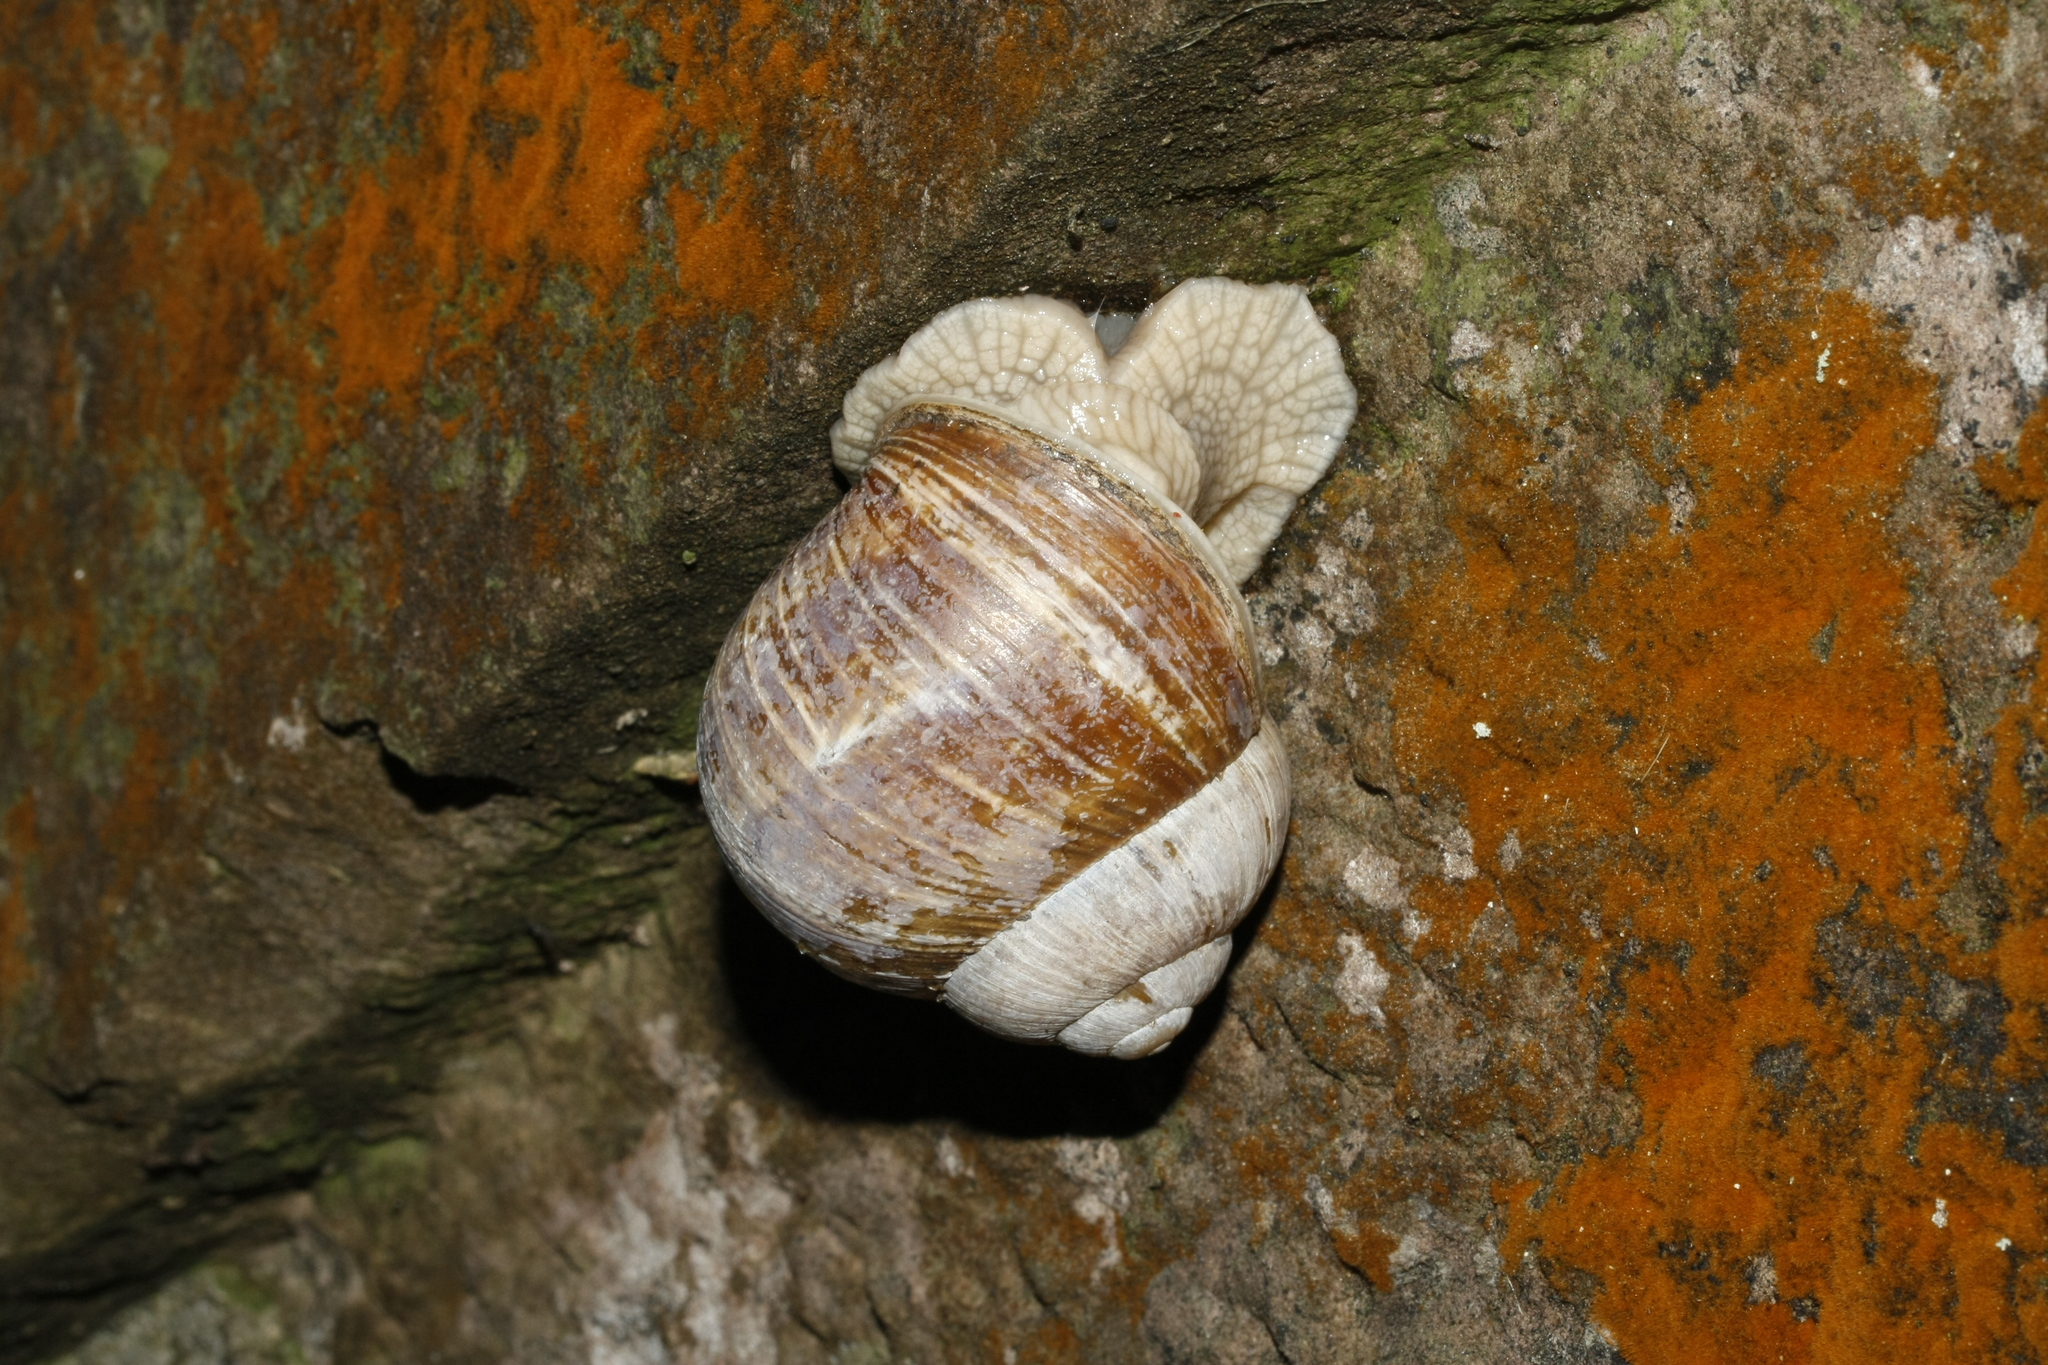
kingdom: Animalia
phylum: Mollusca
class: Gastropoda
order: Stylommatophora
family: Helicidae
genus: Helix
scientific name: Helix pomatia
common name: Roman snail
